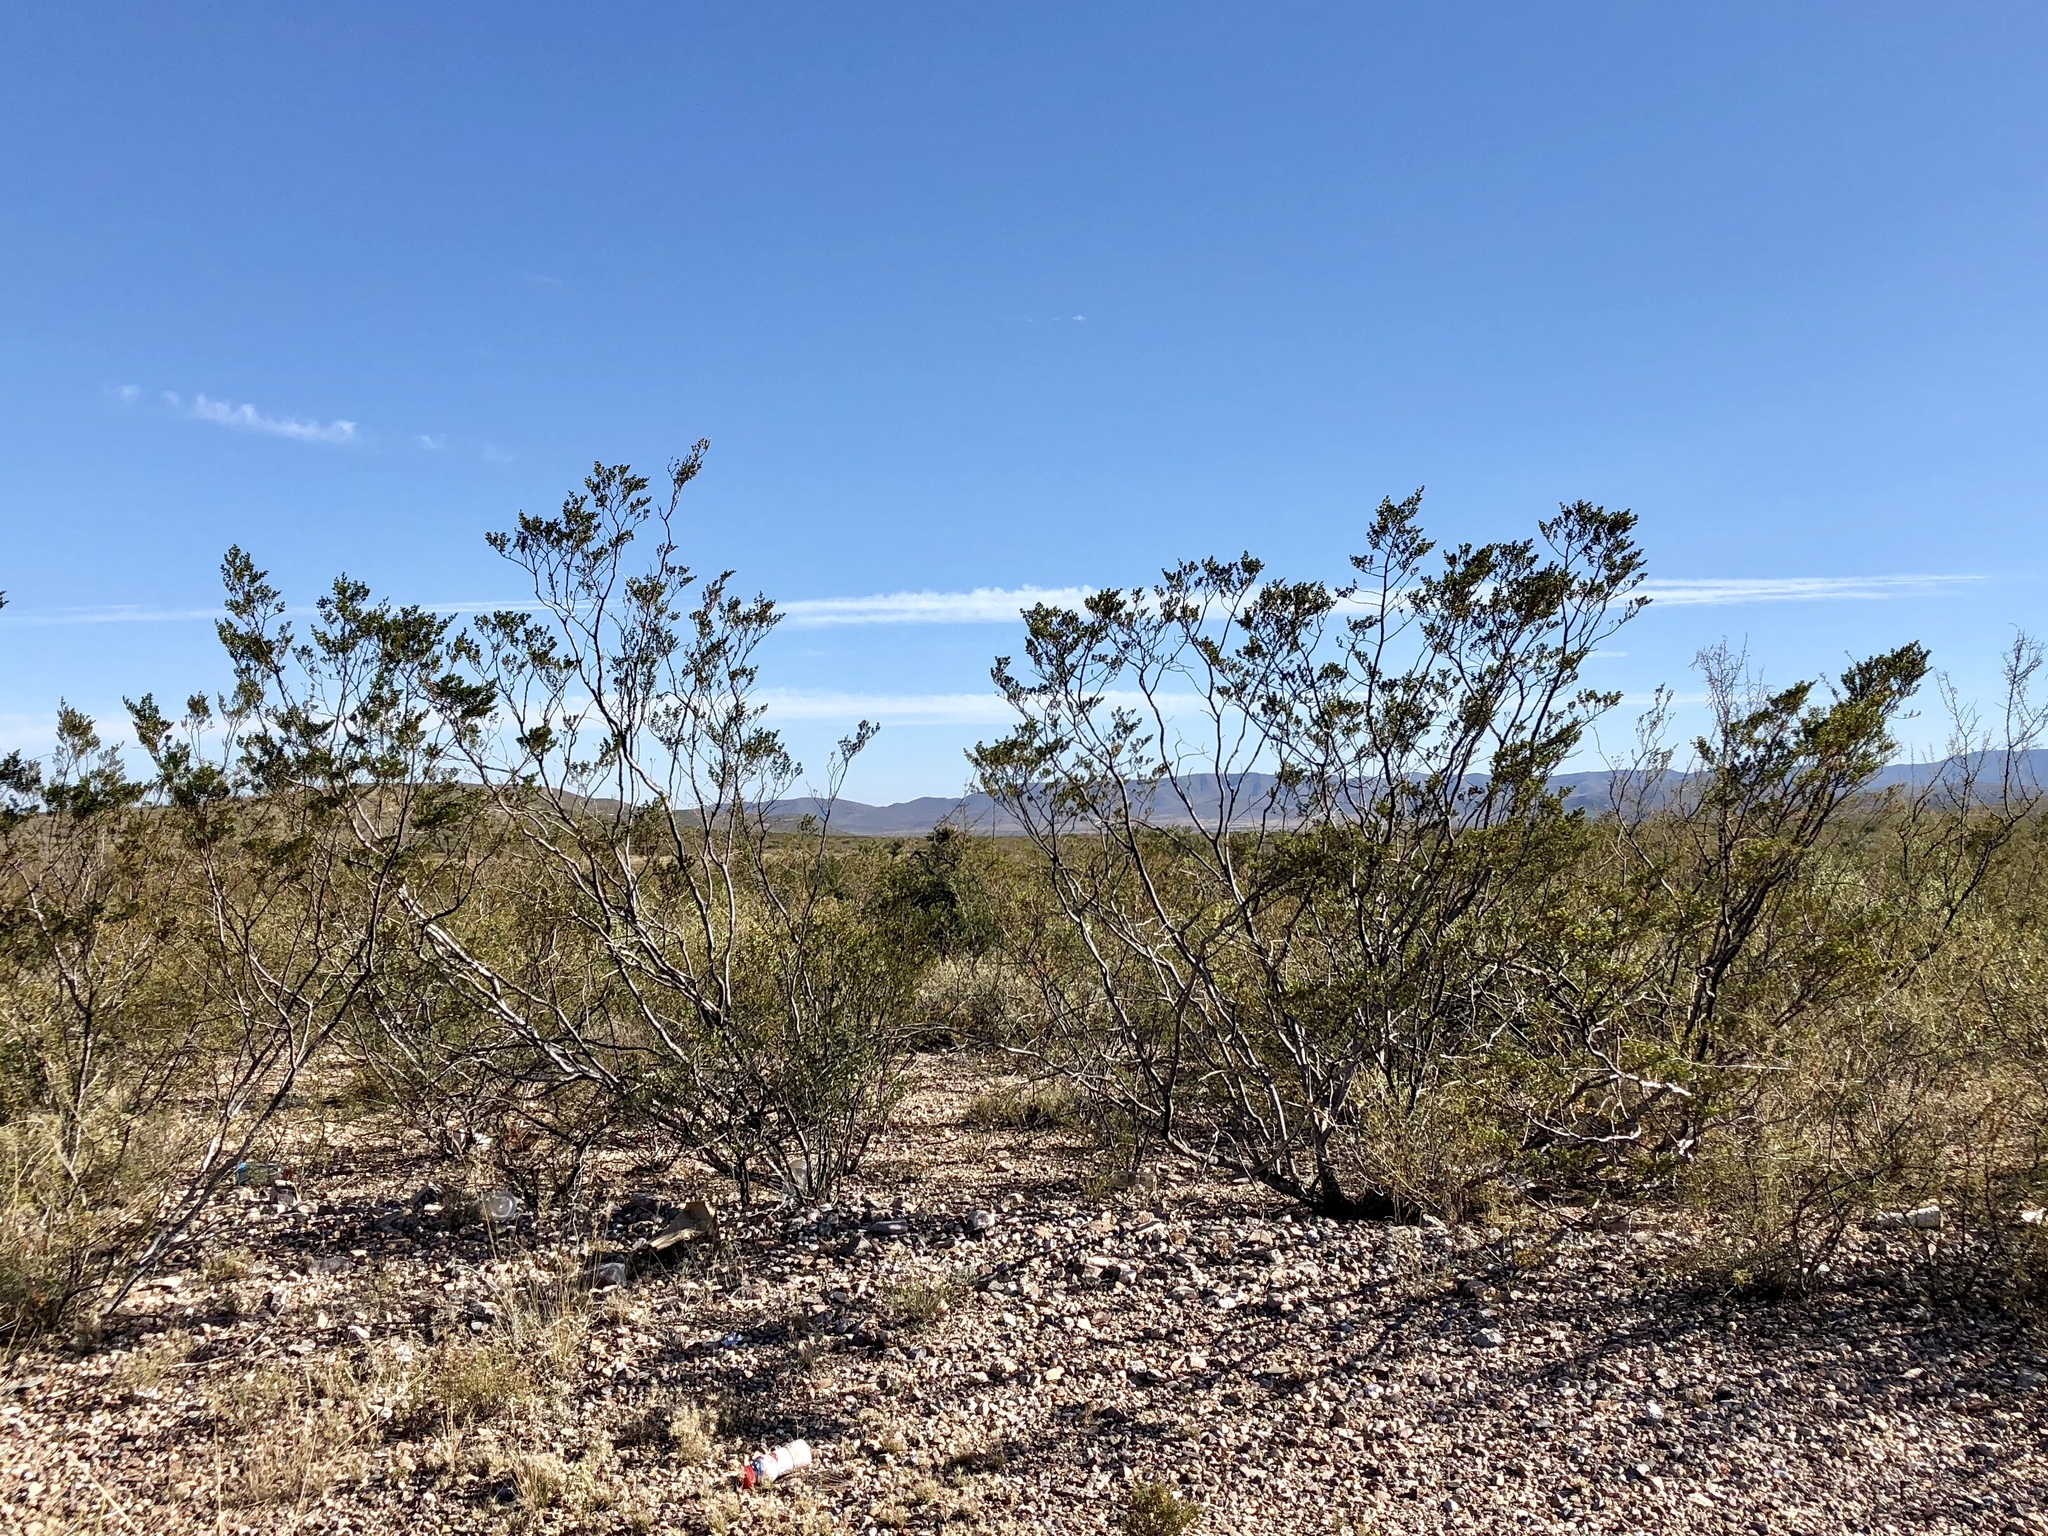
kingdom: Plantae
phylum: Tracheophyta
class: Magnoliopsida
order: Zygophyllales
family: Zygophyllaceae
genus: Larrea
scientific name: Larrea tridentata
